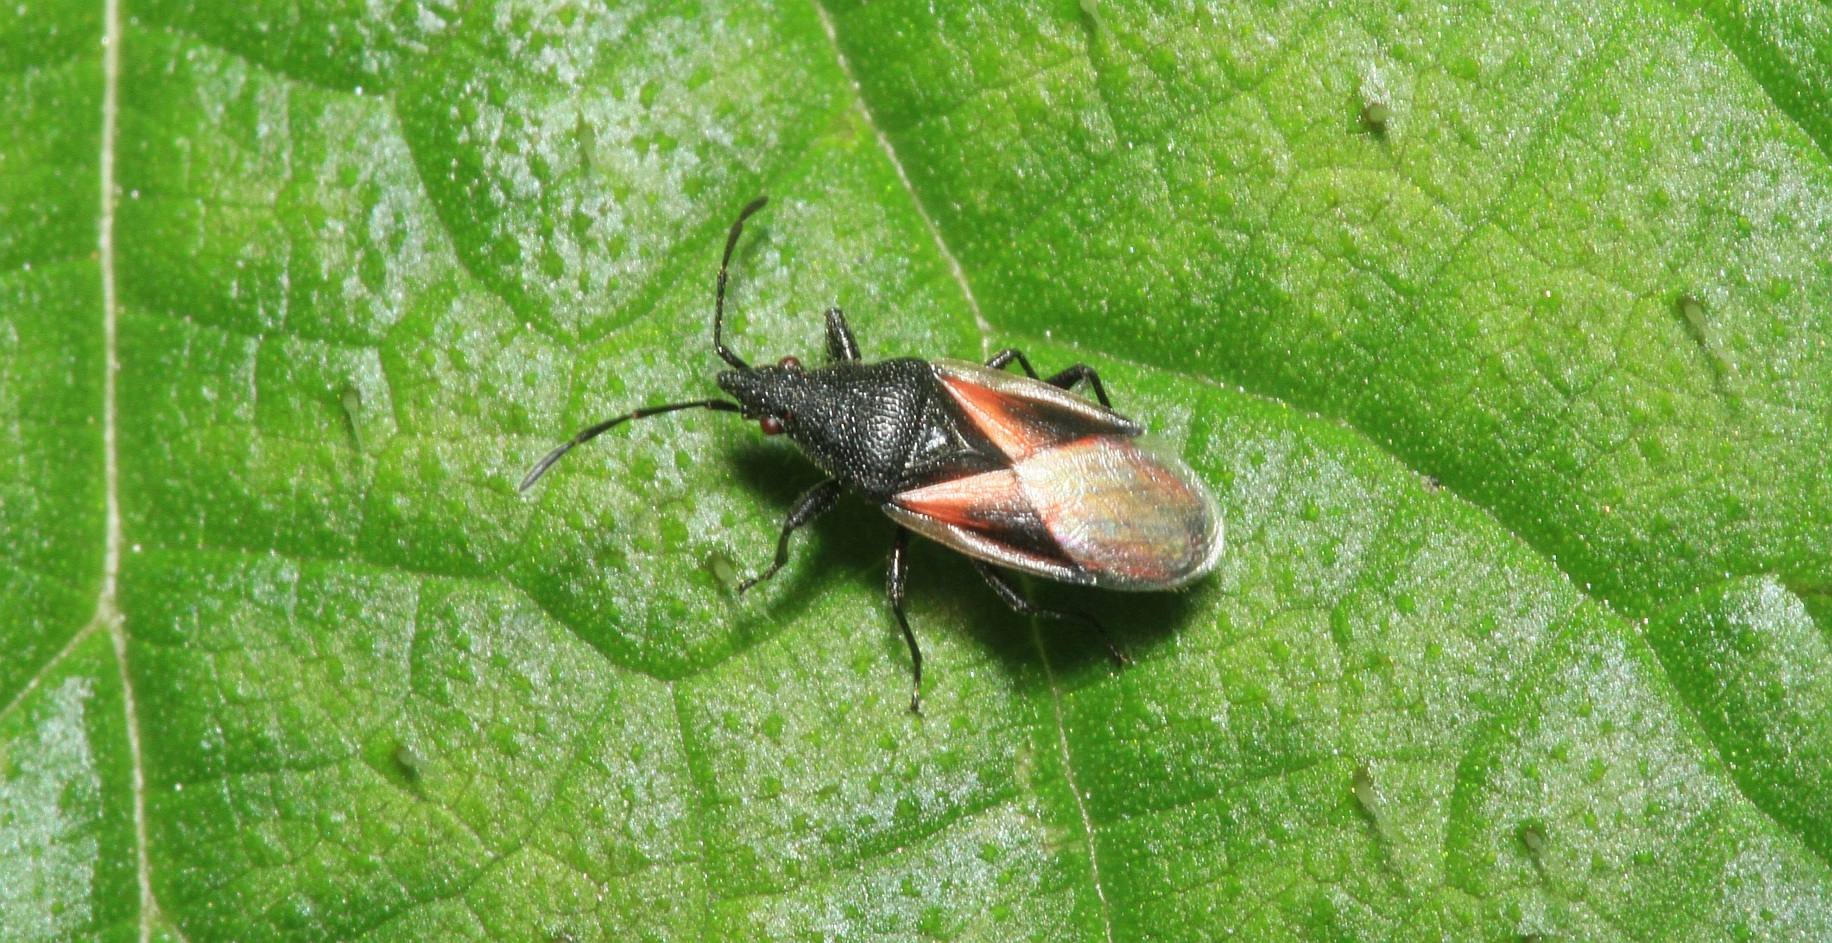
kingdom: Animalia
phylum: Arthropoda
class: Insecta
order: Hemiptera
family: Oxycarenidae
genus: Oxycarenus
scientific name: Oxycarenus lavaterae
